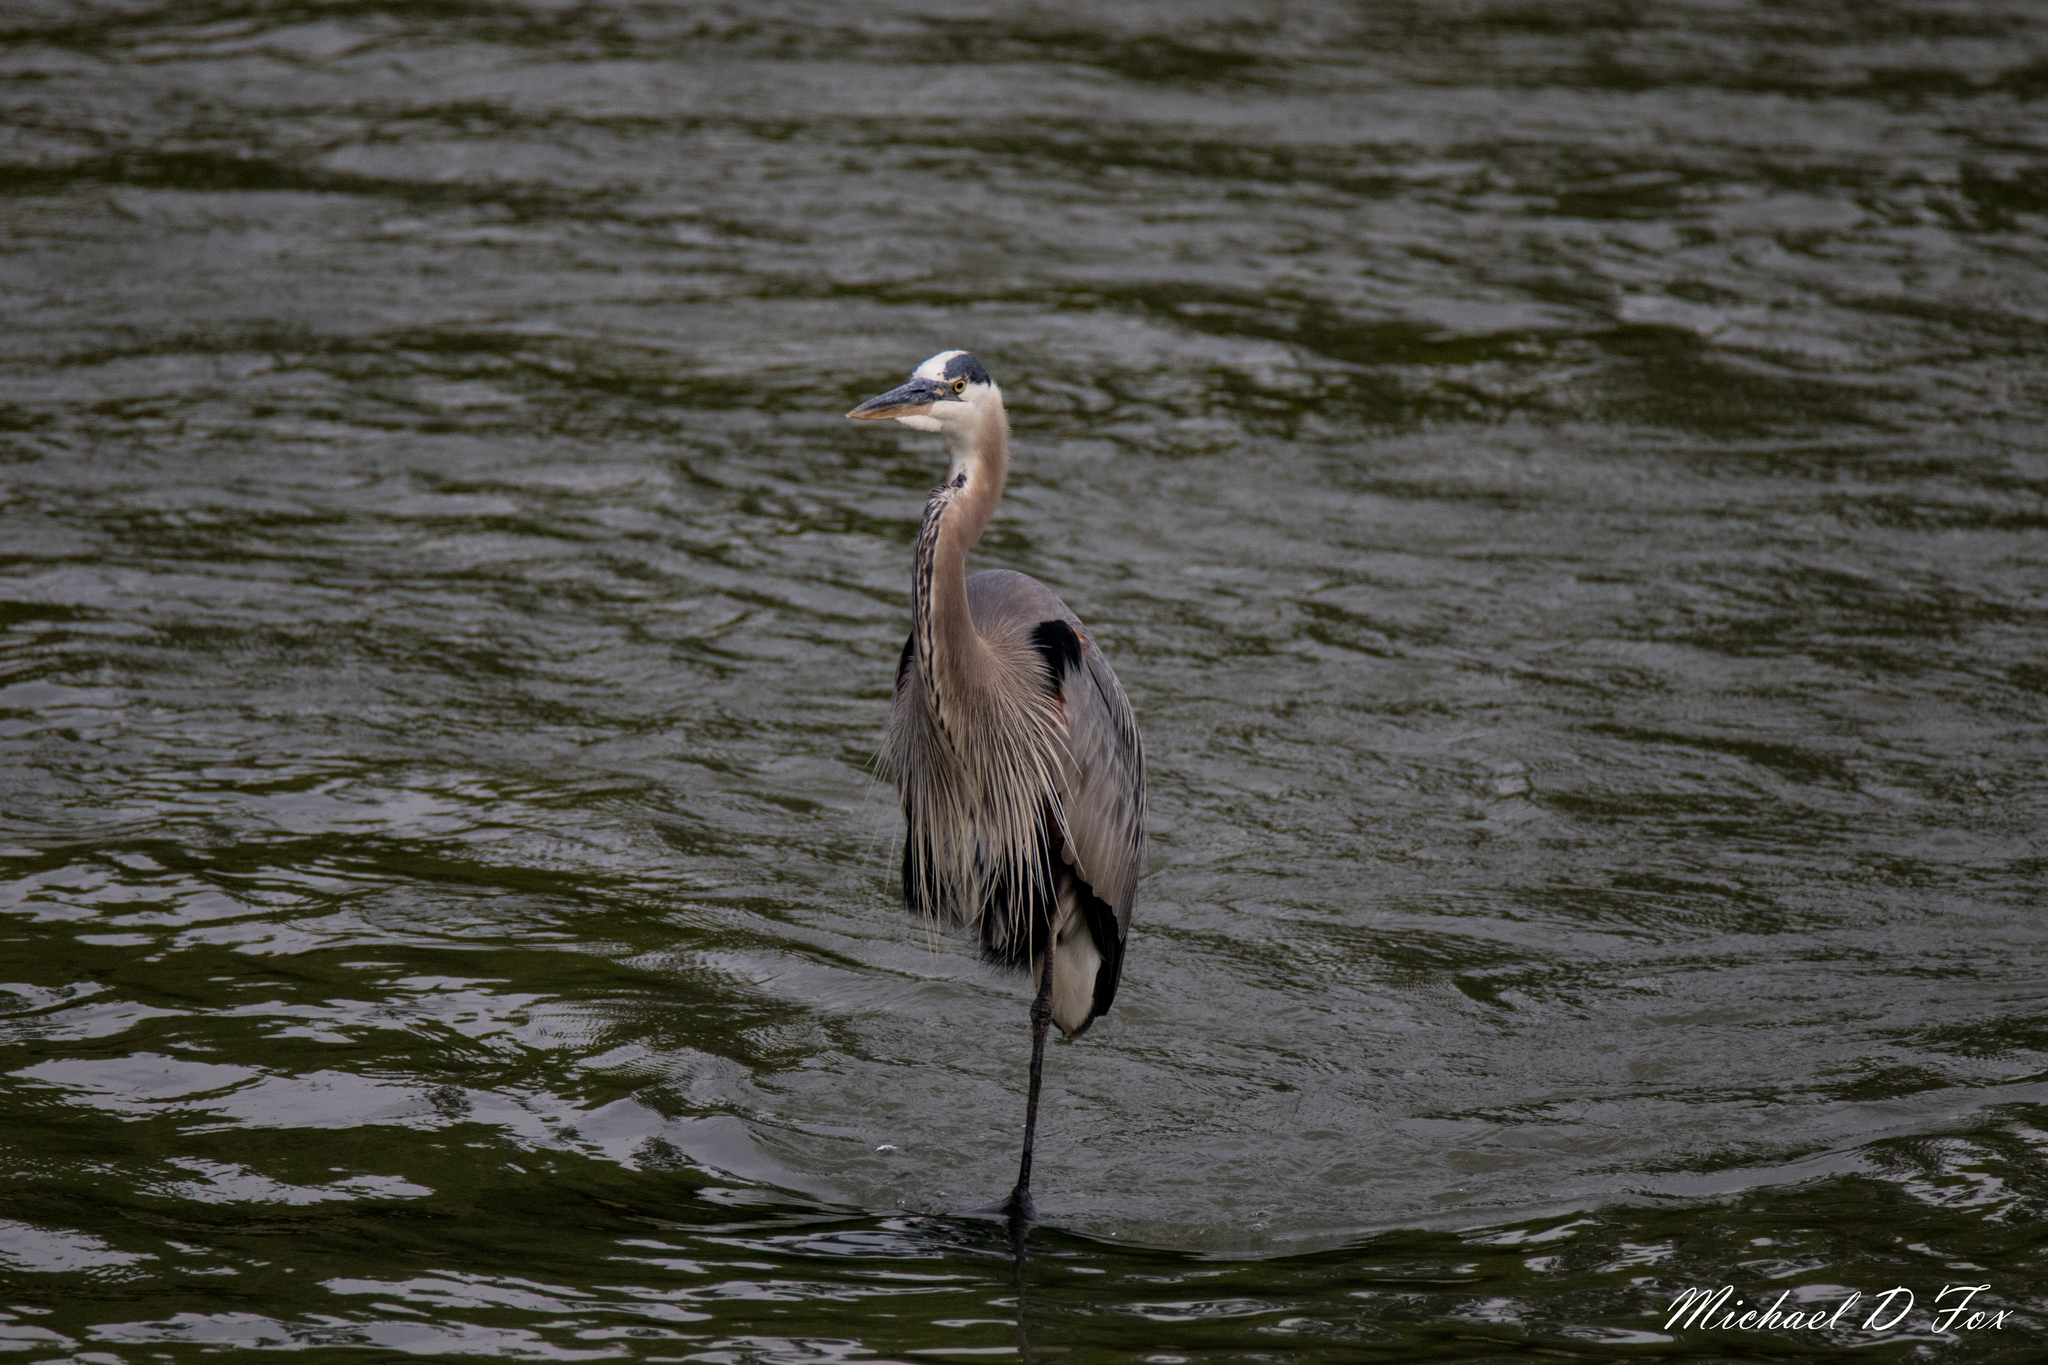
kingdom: Animalia
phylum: Chordata
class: Aves
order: Pelecaniformes
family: Ardeidae
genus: Ardea
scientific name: Ardea herodias
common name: Great blue heron
